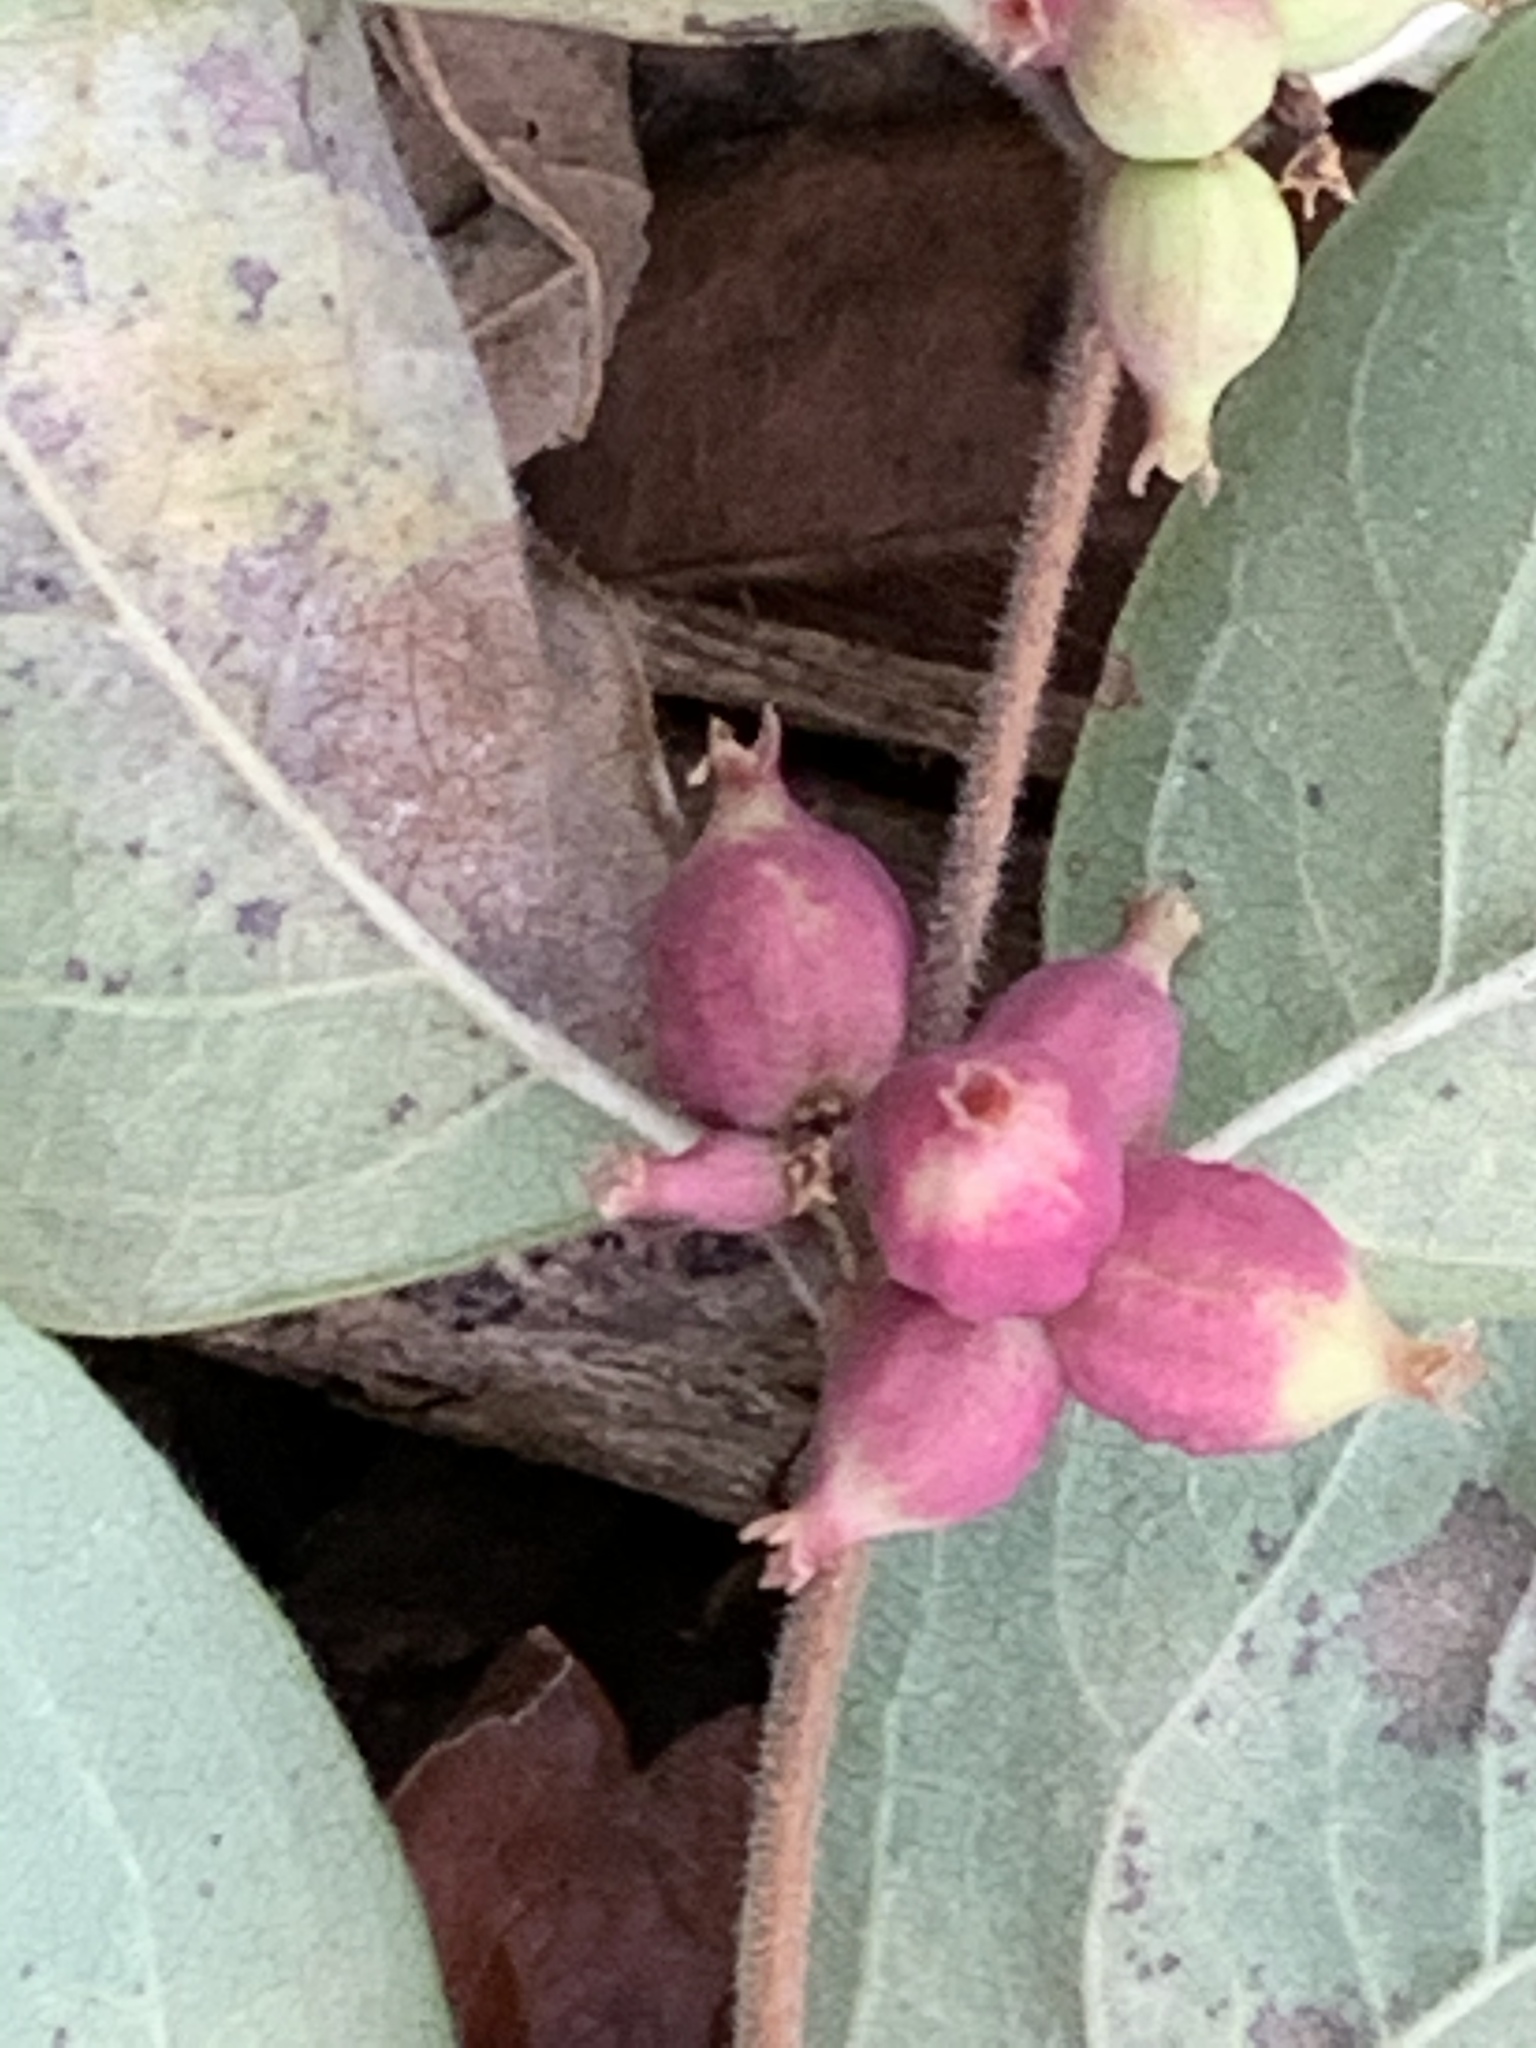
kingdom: Plantae
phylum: Tracheophyta
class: Magnoliopsida
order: Dipsacales
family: Caprifoliaceae
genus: Symphoricarpos
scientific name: Symphoricarpos orbiculatus
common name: Coralberry
